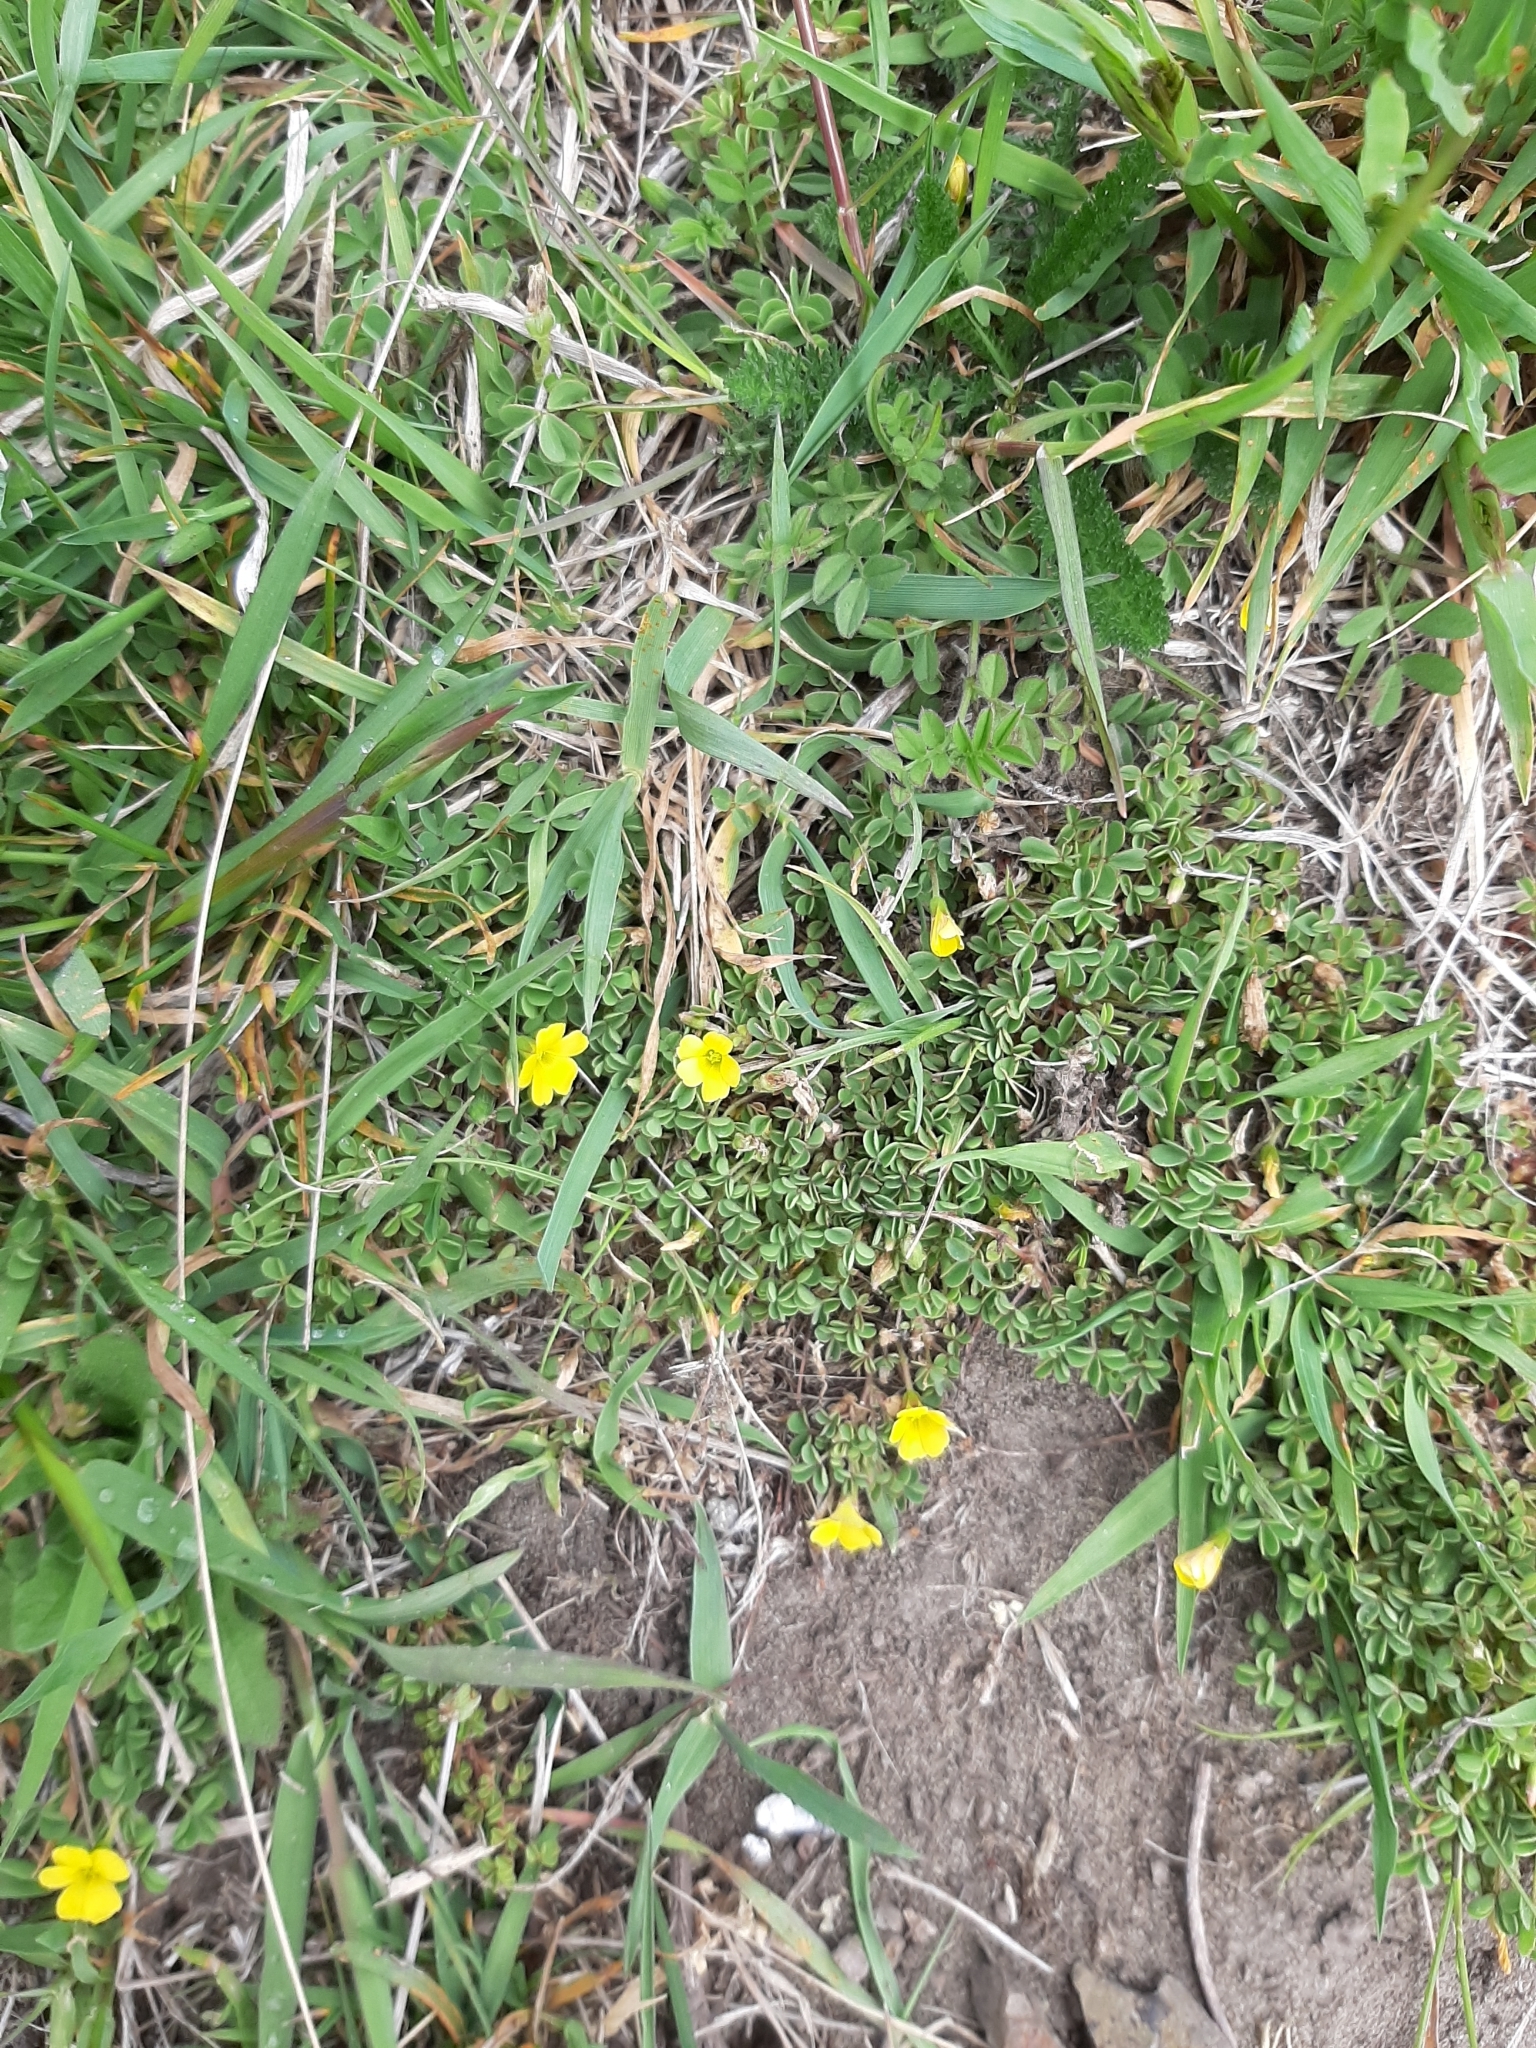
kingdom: Plantae
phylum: Tracheophyta
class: Magnoliopsida
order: Oxalidales
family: Oxalidaceae
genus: Oxalis
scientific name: Oxalis exilis
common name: Least yellow-sorrel
